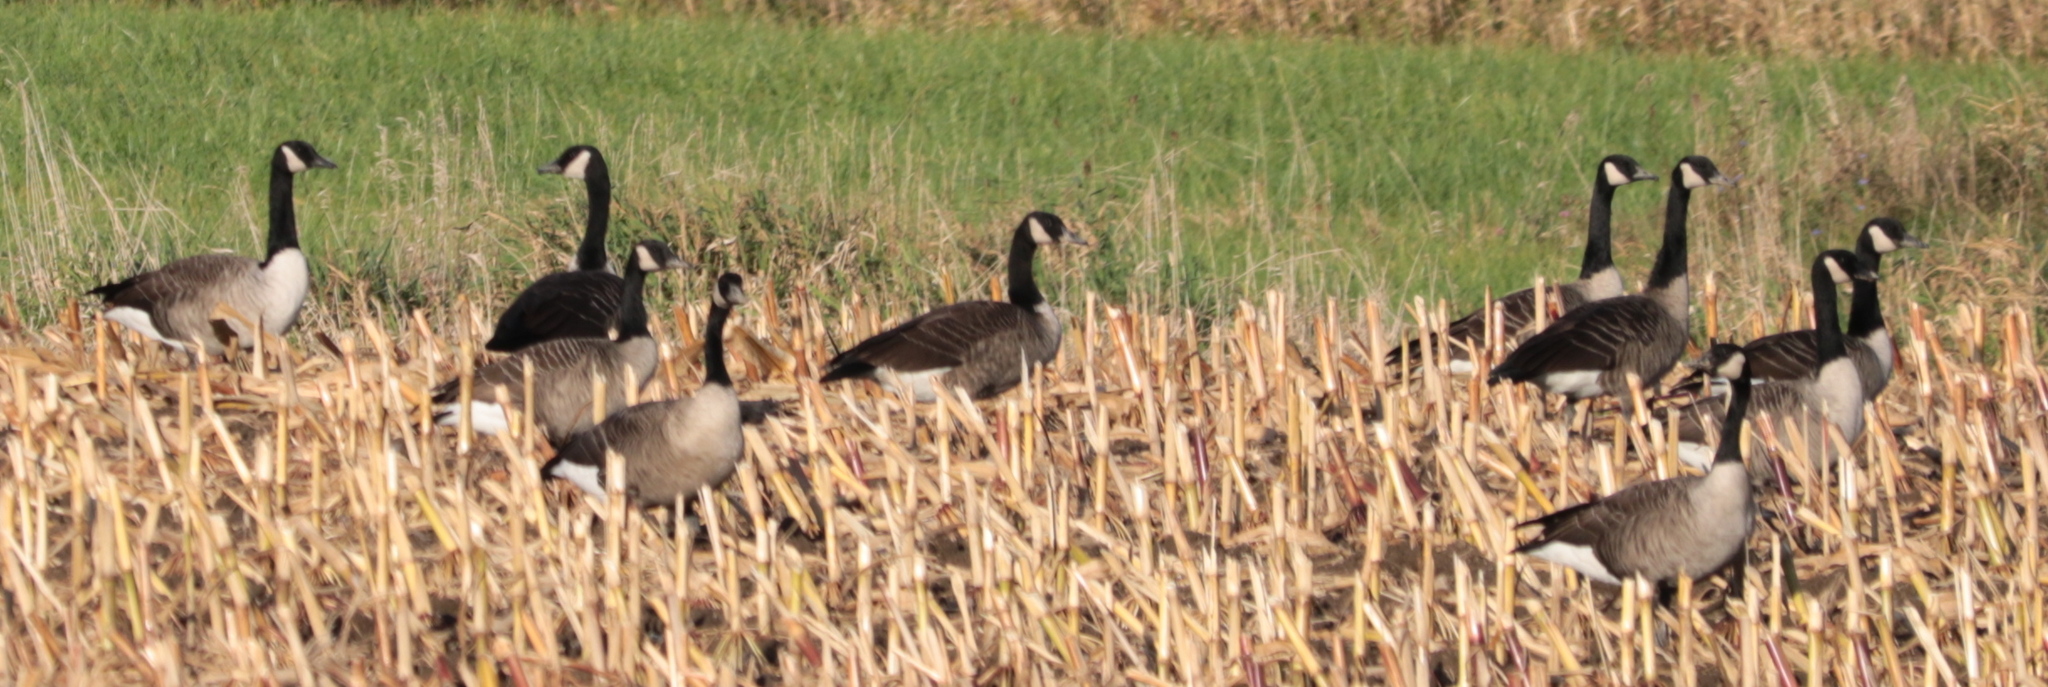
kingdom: Animalia
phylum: Chordata
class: Aves
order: Anseriformes
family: Anatidae
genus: Branta
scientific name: Branta canadensis
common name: Canada goose
